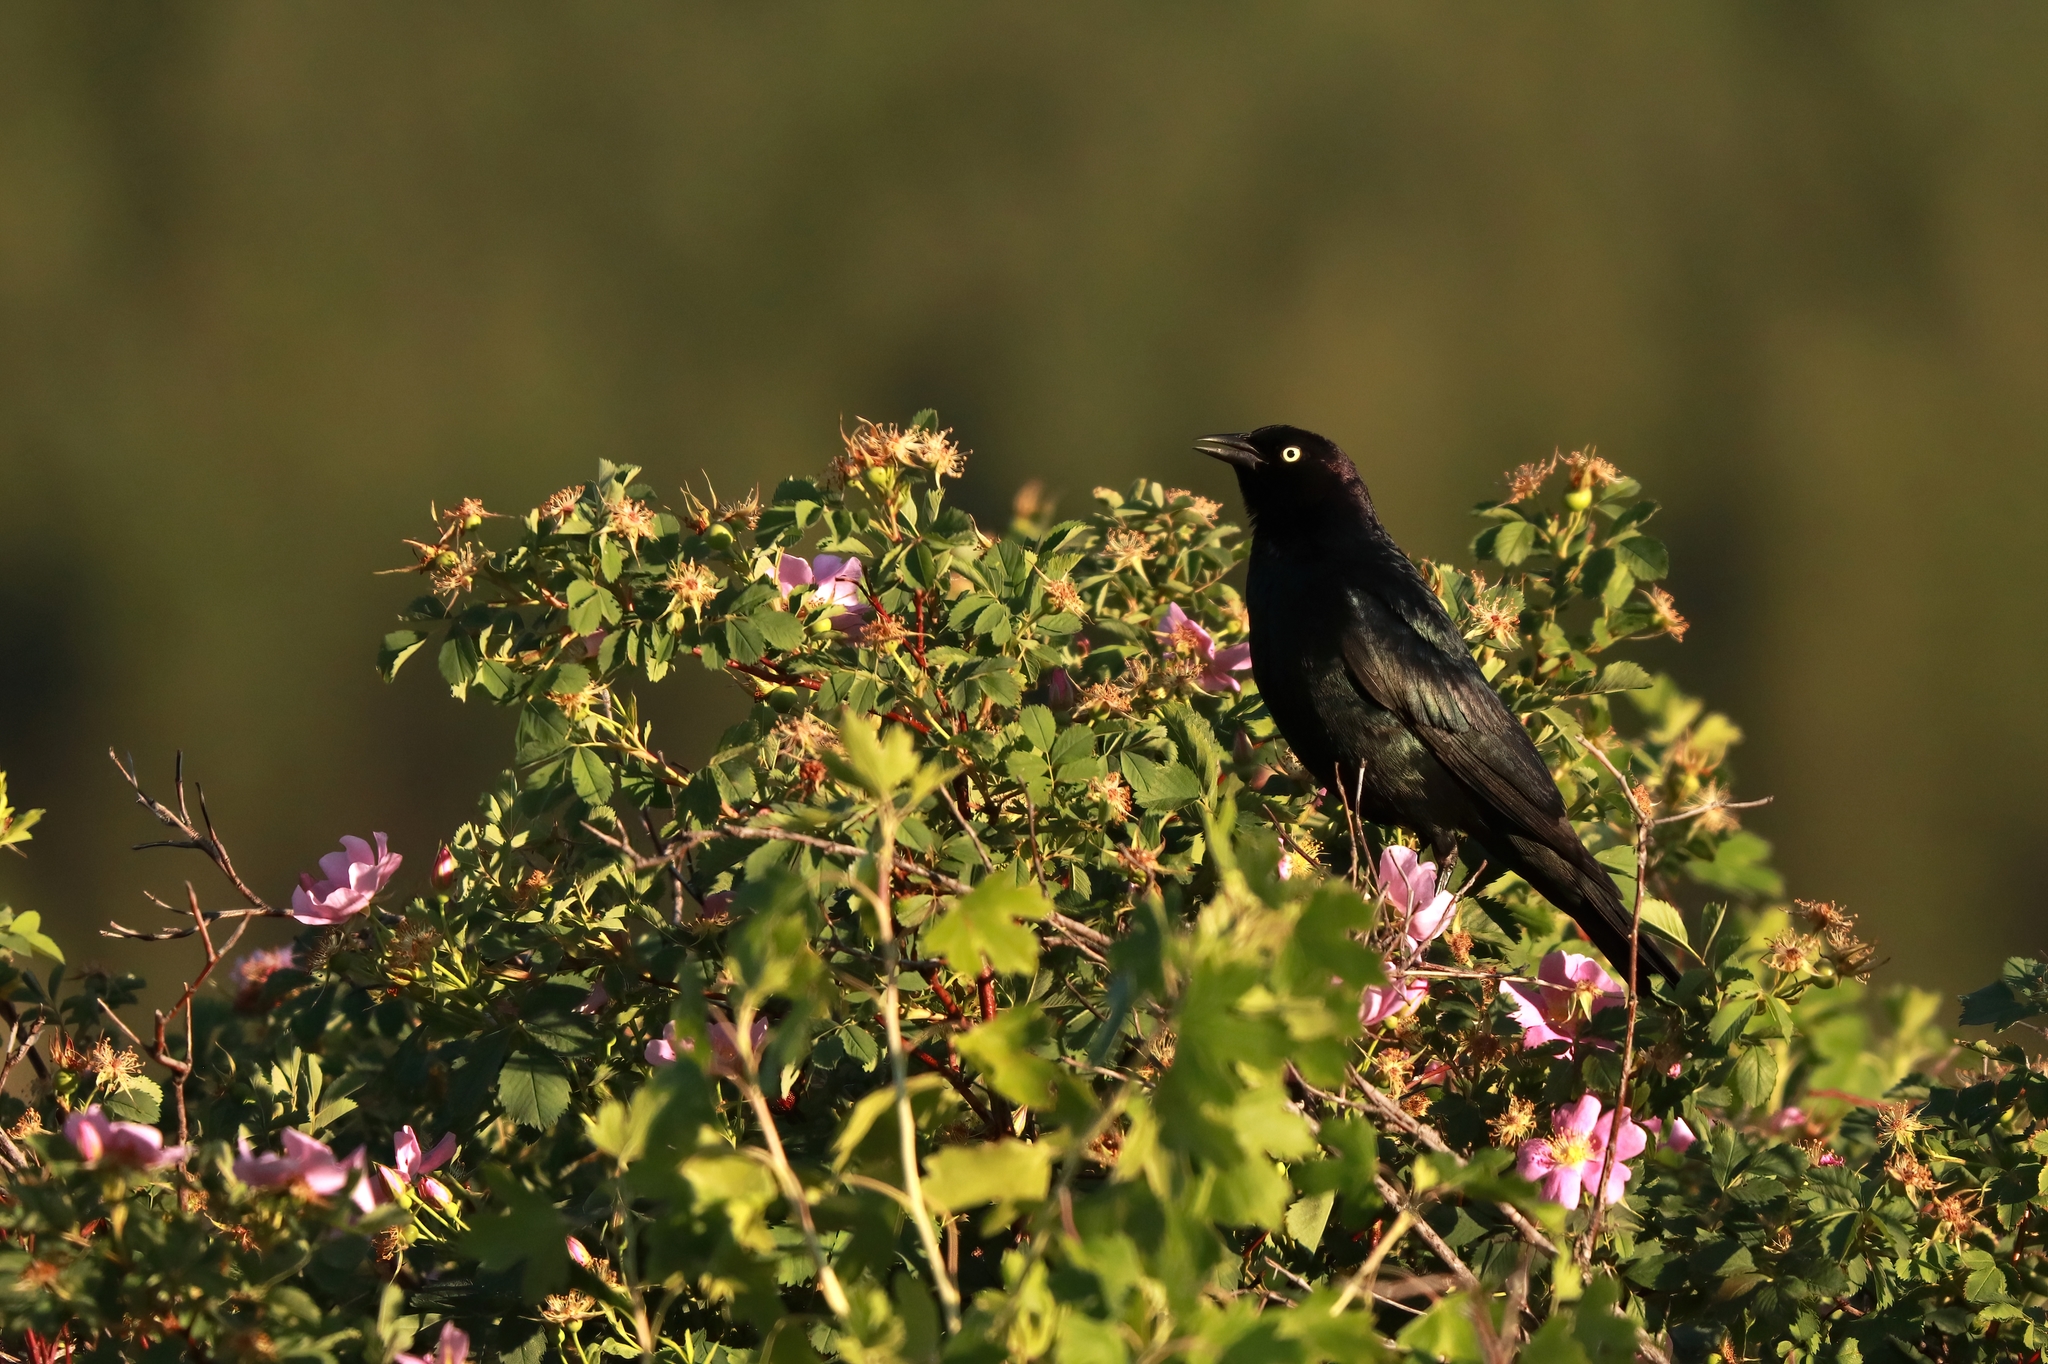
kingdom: Animalia
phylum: Chordata
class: Aves
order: Passeriformes
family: Icteridae
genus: Euphagus
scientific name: Euphagus cyanocephalus
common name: Brewer's blackbird
